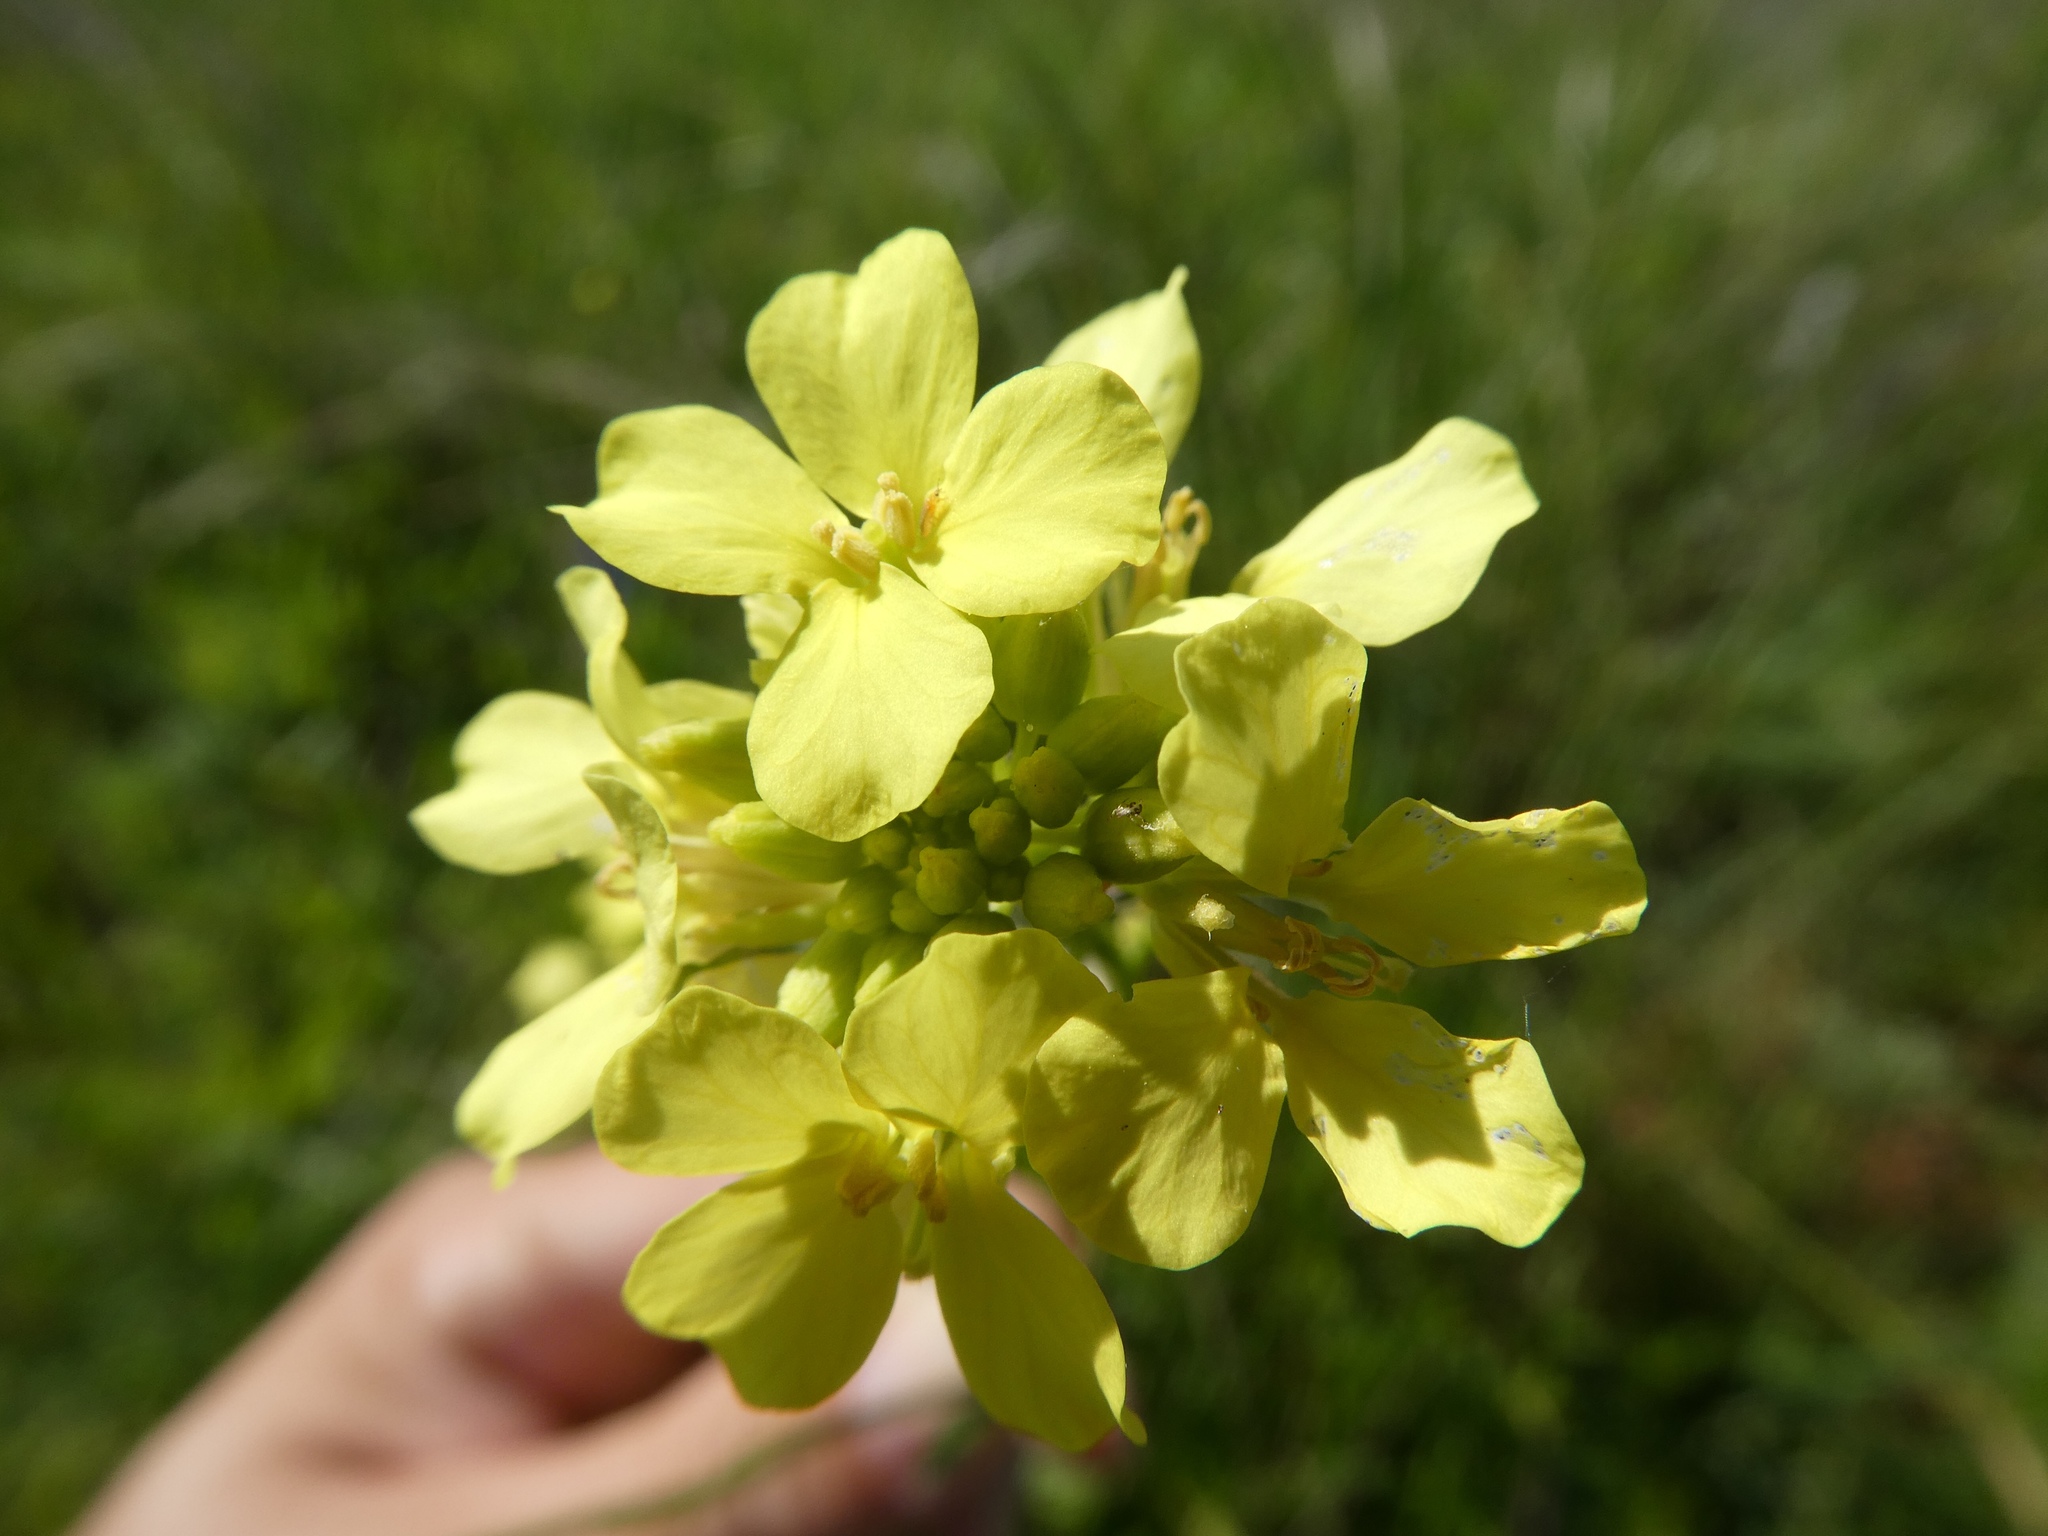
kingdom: Plantae
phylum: Tracheophyta
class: Magnoliopsida
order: Brassicales
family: Brassicaceae
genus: Rapistrum
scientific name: Rapistrum rugosum
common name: Annual bastardcabbage
